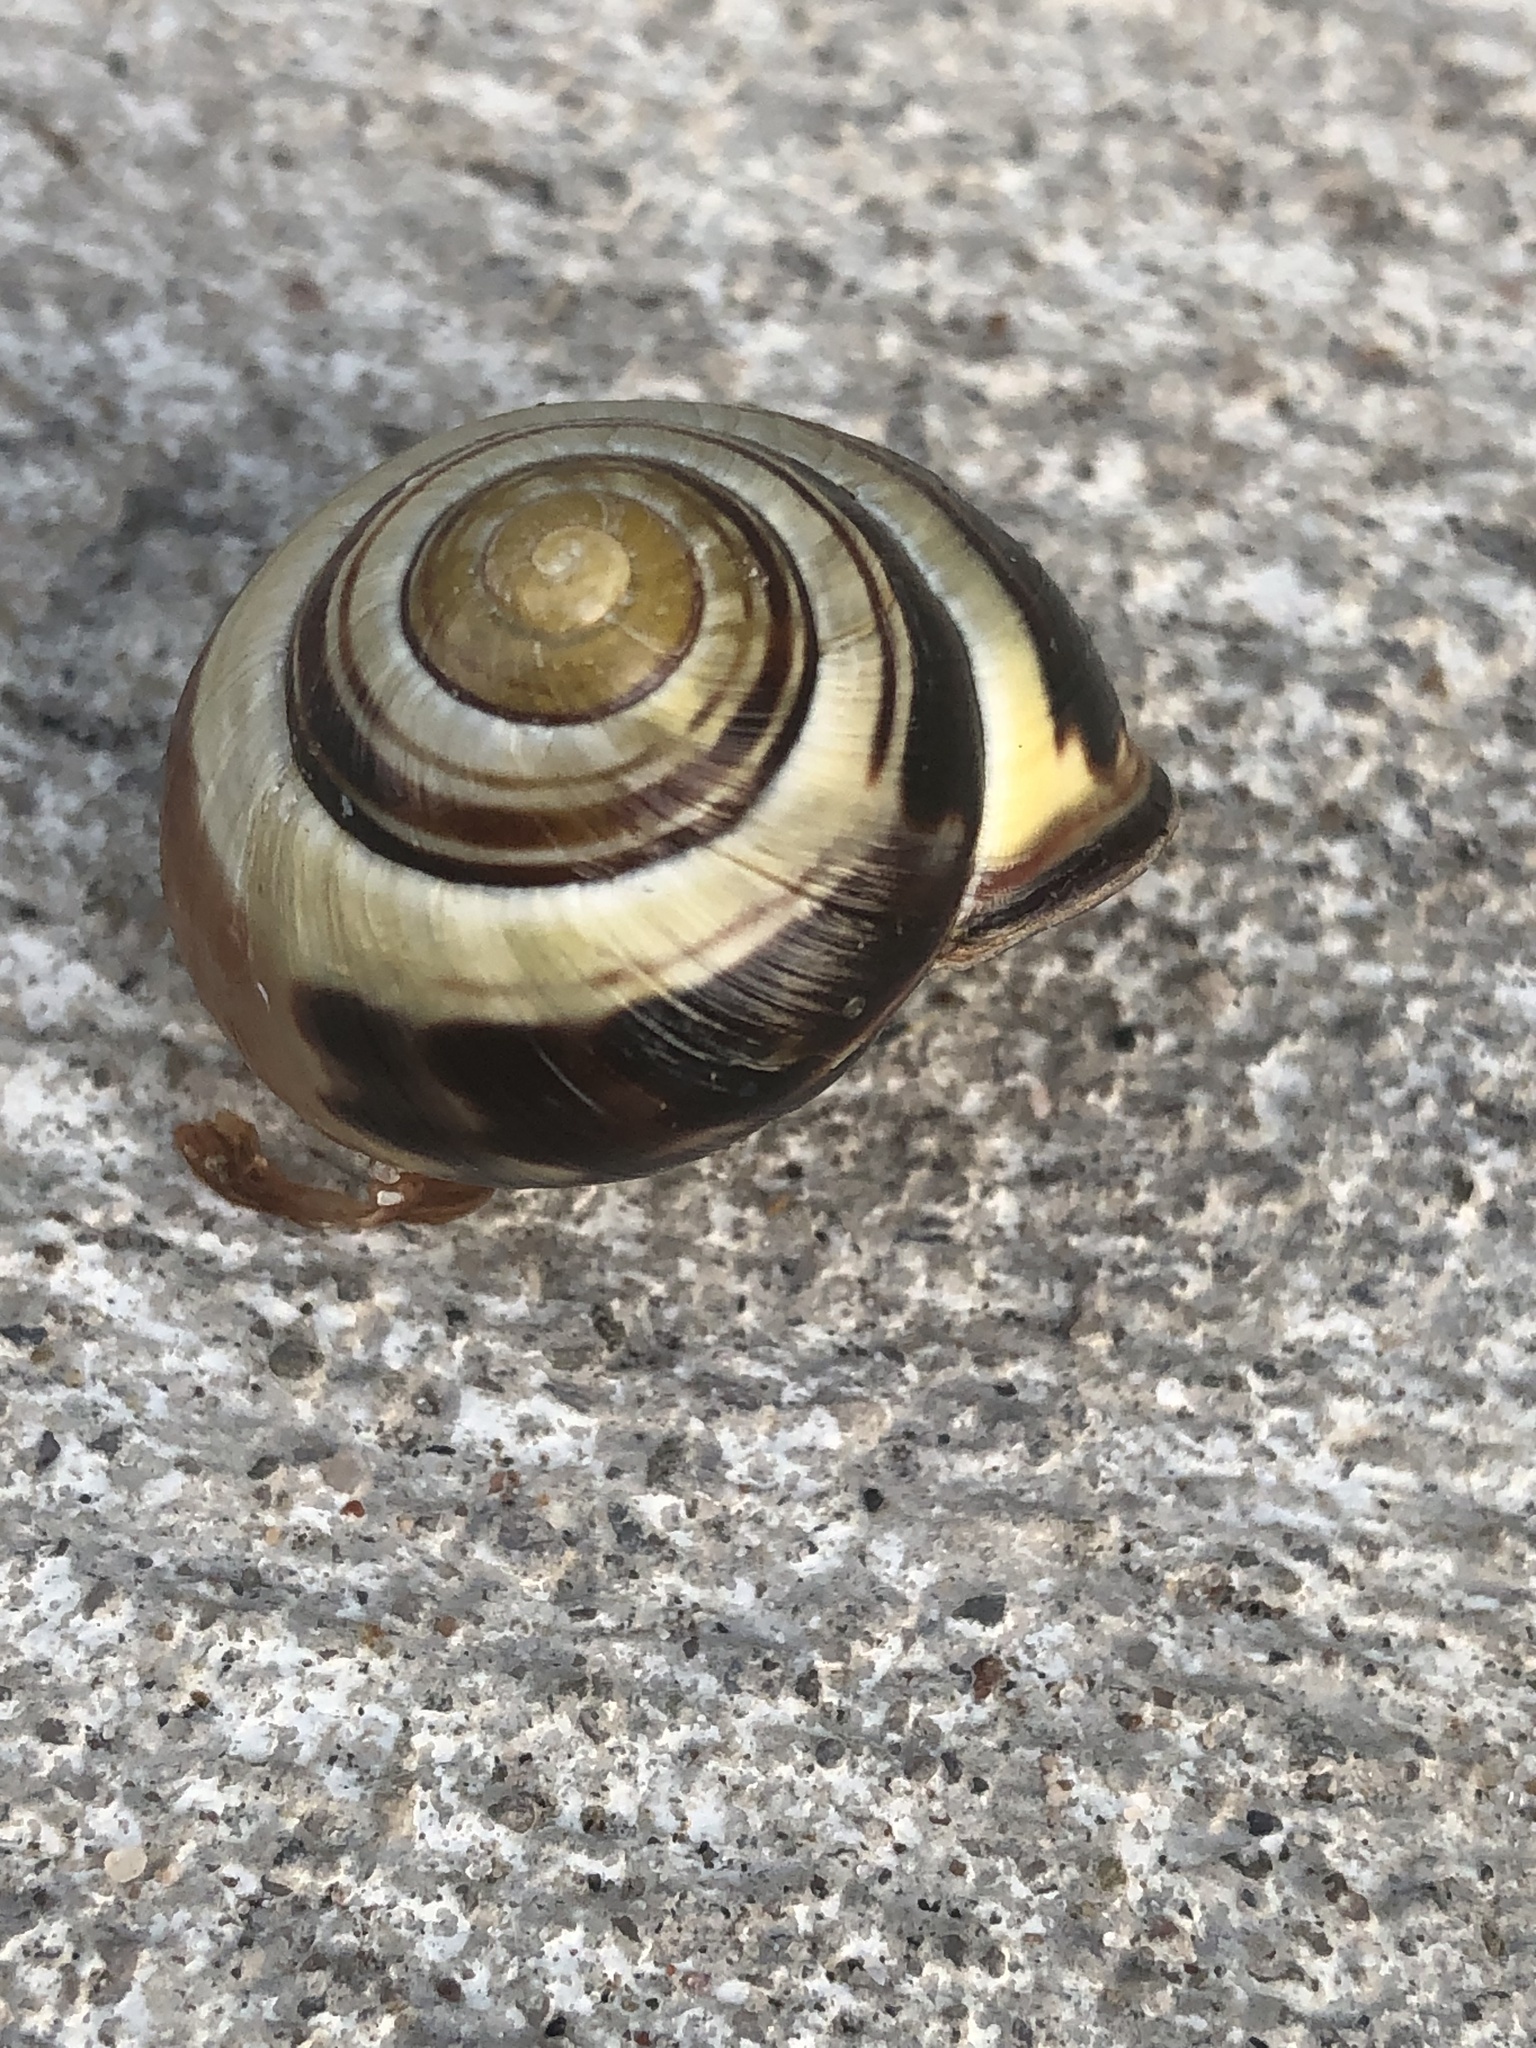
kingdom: Animalia
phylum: Mollusca
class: Gastropoda
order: Stylommatophora
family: Helicidae
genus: Cepaea
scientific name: Cepaea nemoralis
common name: Grovesnail
